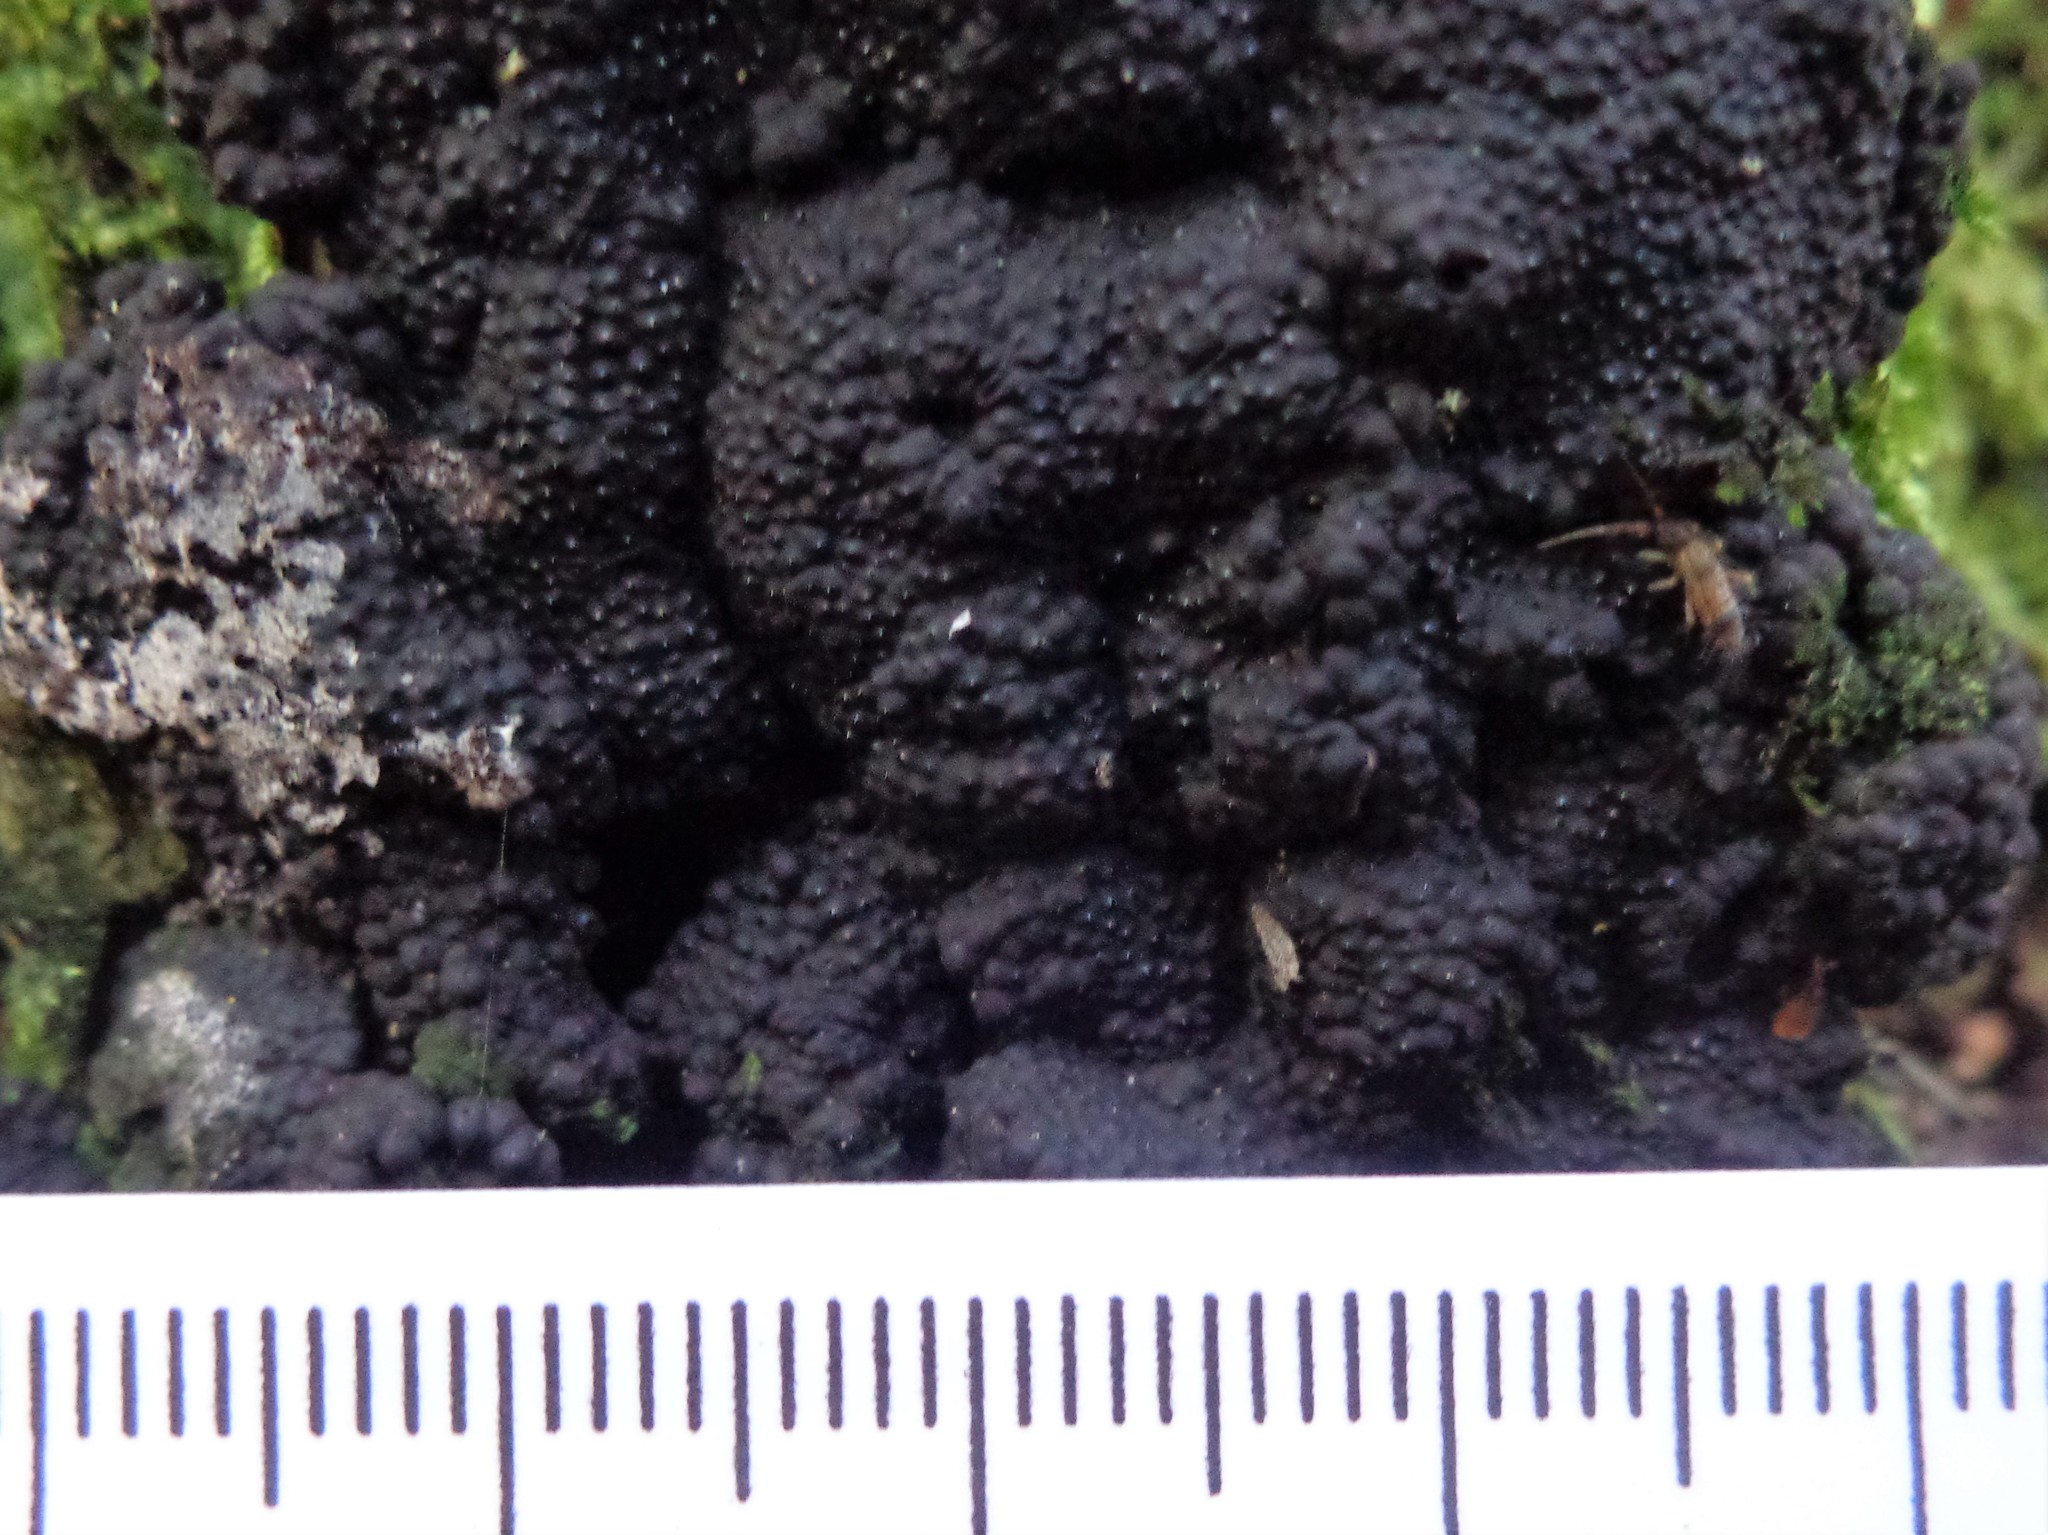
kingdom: Fungi
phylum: Ascomycota
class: Sordariomycetes
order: Xylariales
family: Hypoxylaceae
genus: Jackrogersella
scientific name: Jackrogersella multiformis
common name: Birch woodwart
